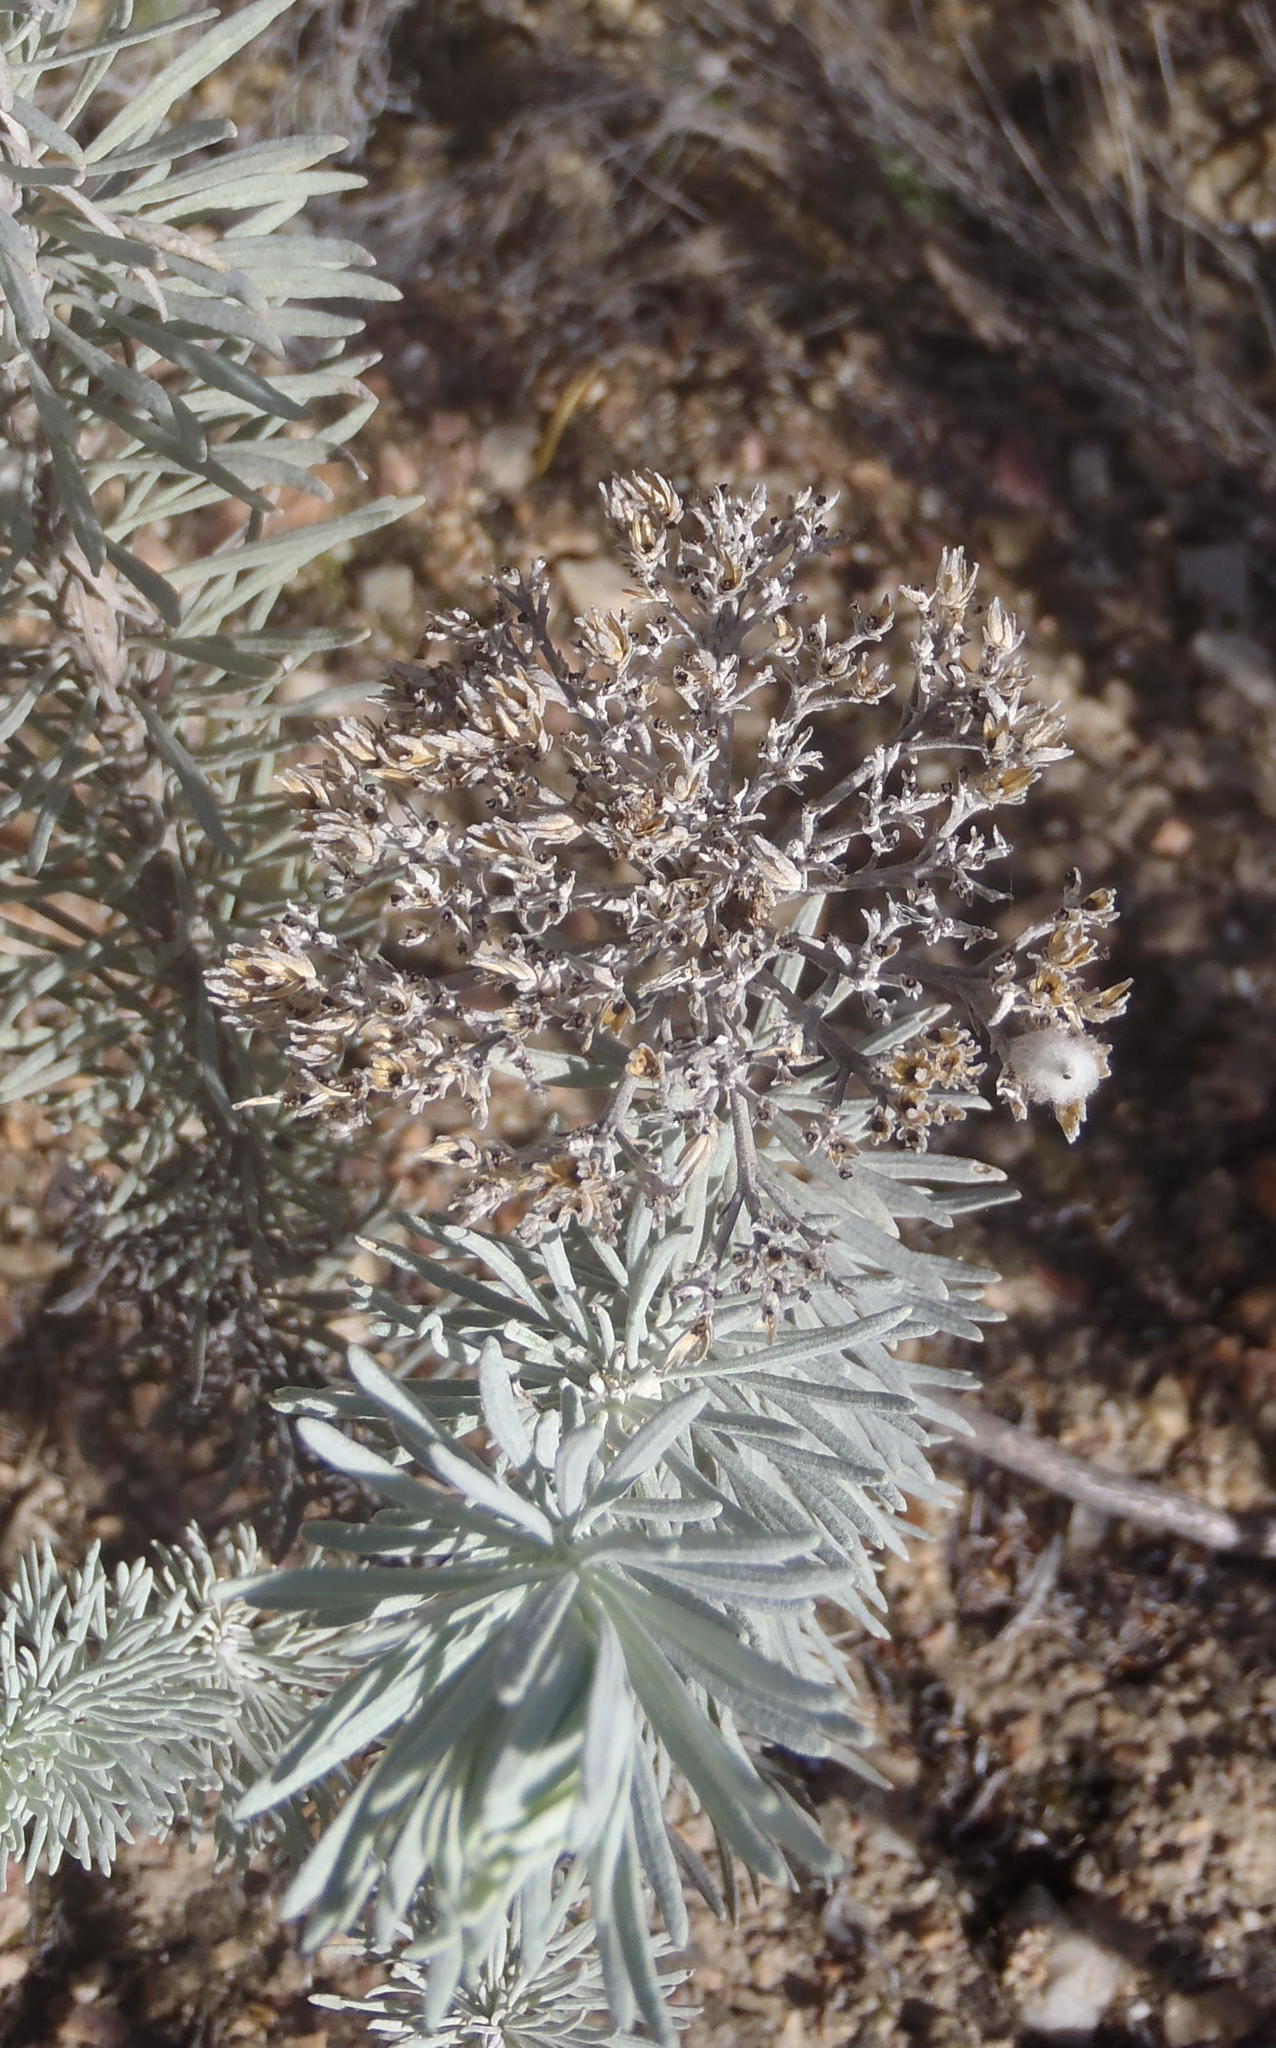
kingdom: Plantae
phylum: Tracheophyta
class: Magnoliopsida
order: Asterales
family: Asteraceae
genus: Athanasia
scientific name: Athanasia tomentosa
